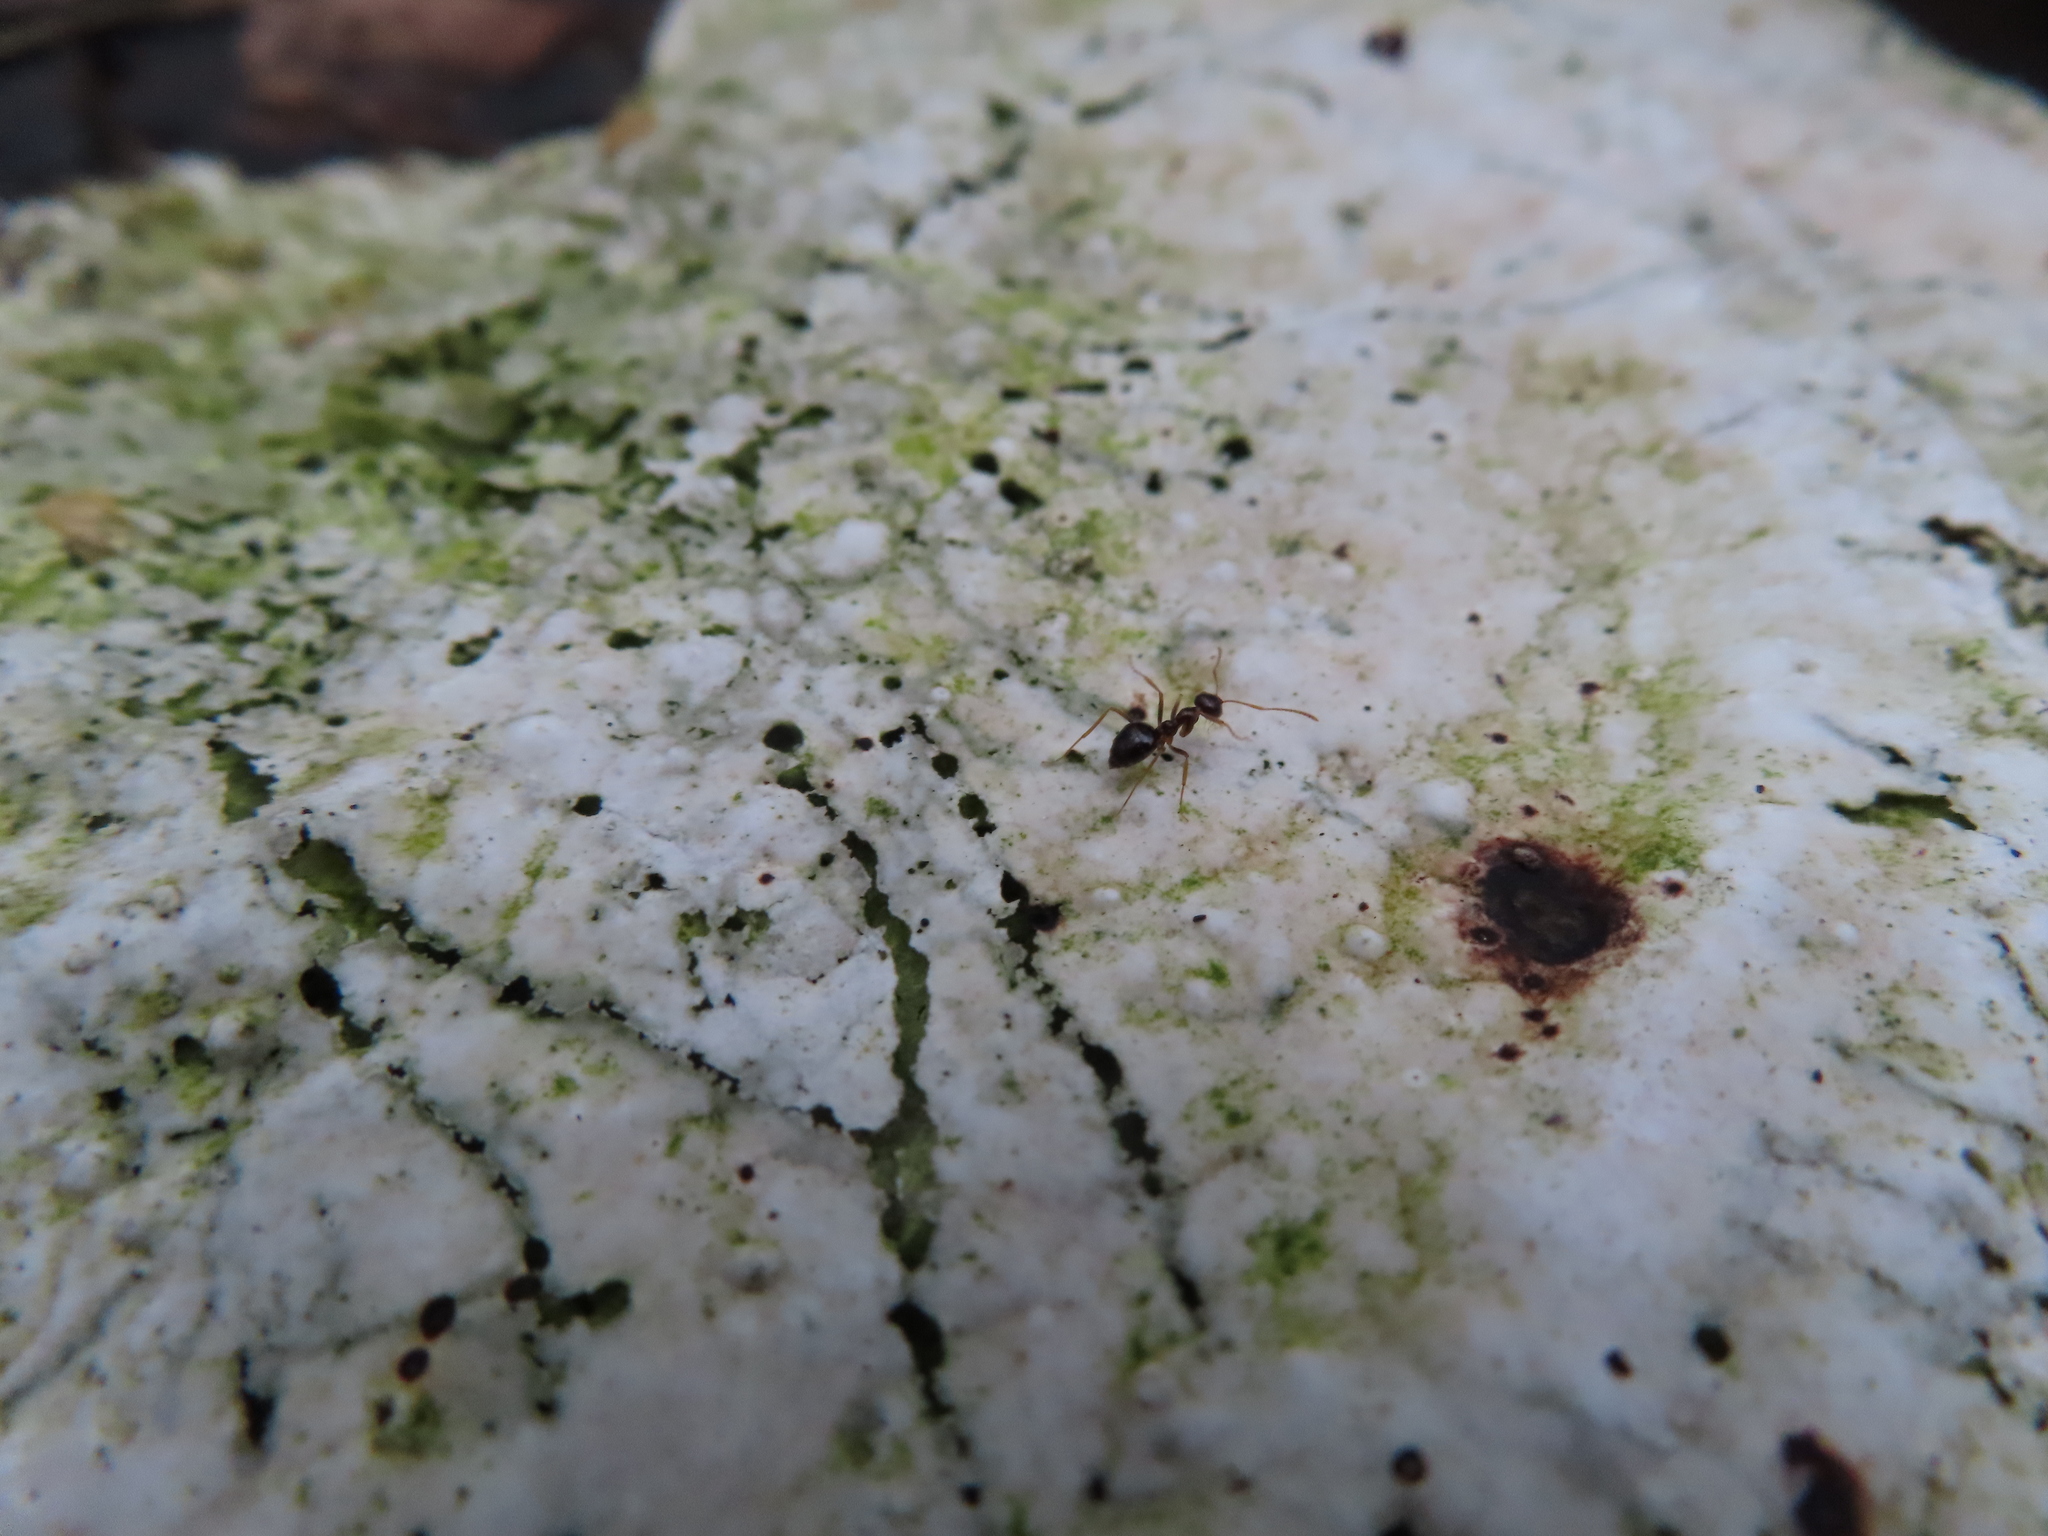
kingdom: Animalia
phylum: Arthropoda
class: Insecta
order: Hymenoptera
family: Formicidae
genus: Prenolepis
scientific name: Prenolepis imparis
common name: Small honey ant
